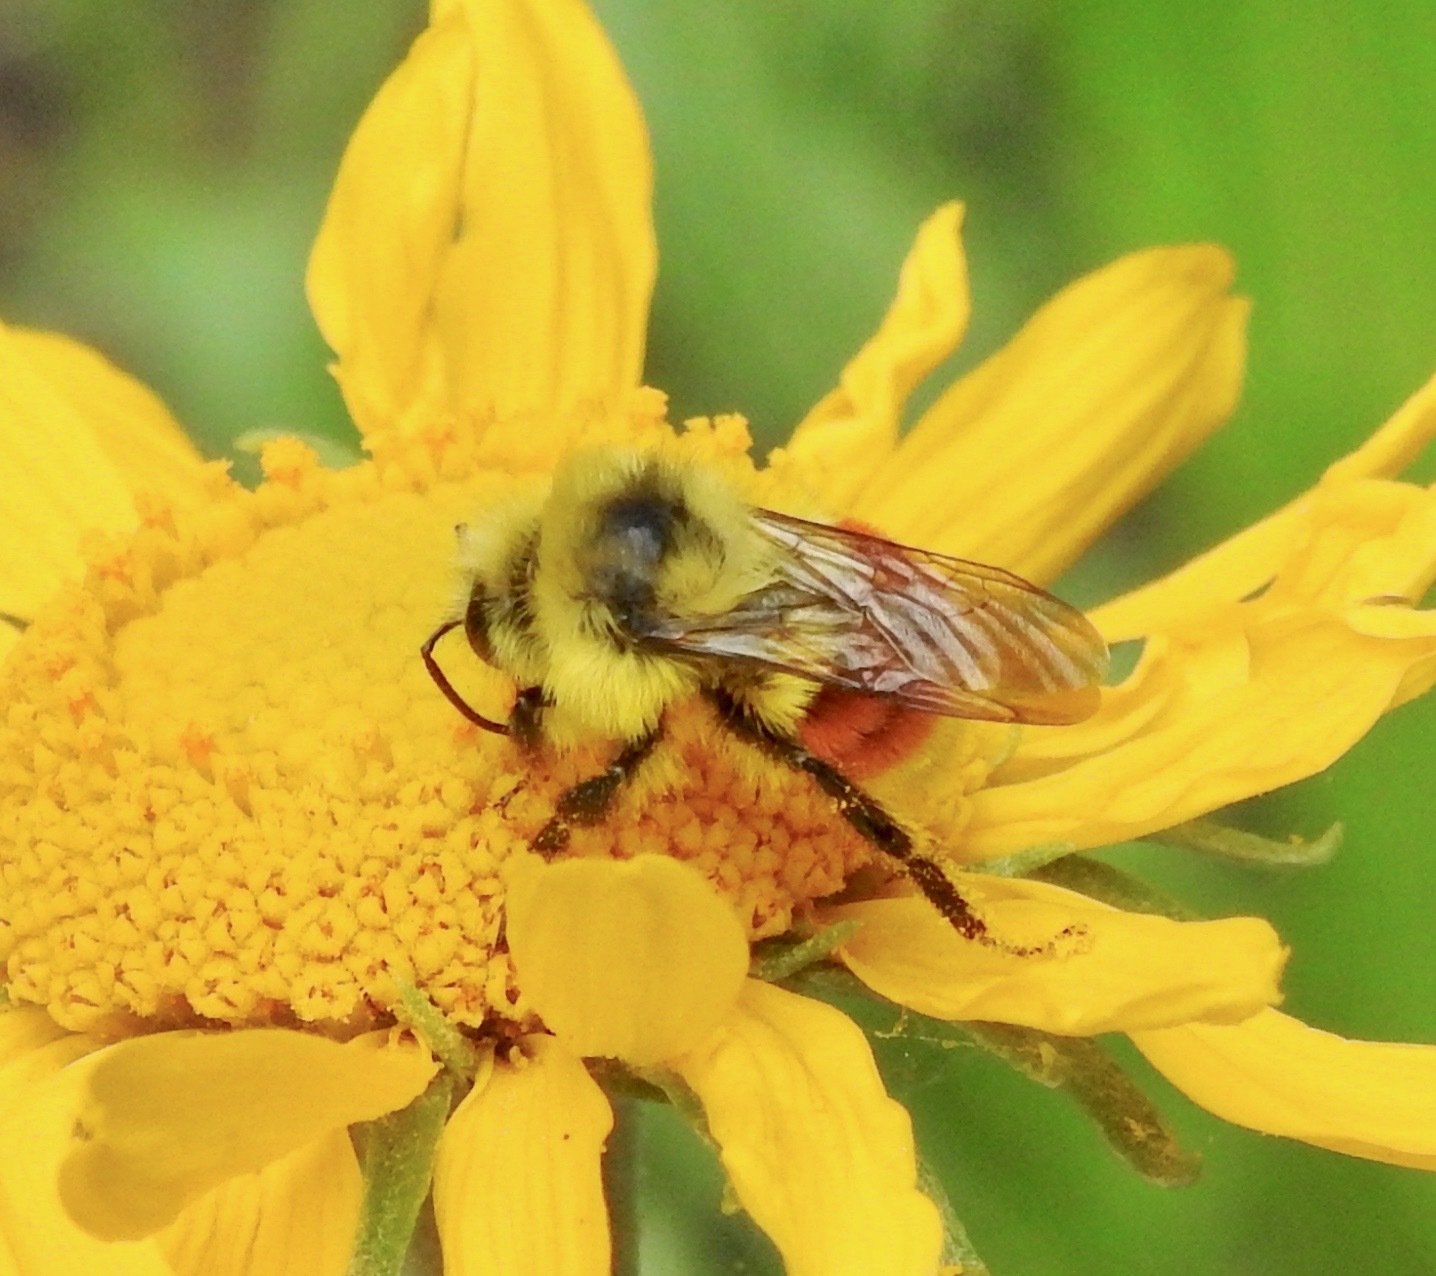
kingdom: Animalia
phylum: Arthropoda
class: Insecta
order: Hymenoptera
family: Apidae
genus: Bombus
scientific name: Bombus huntii
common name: Hunt bumble bee
